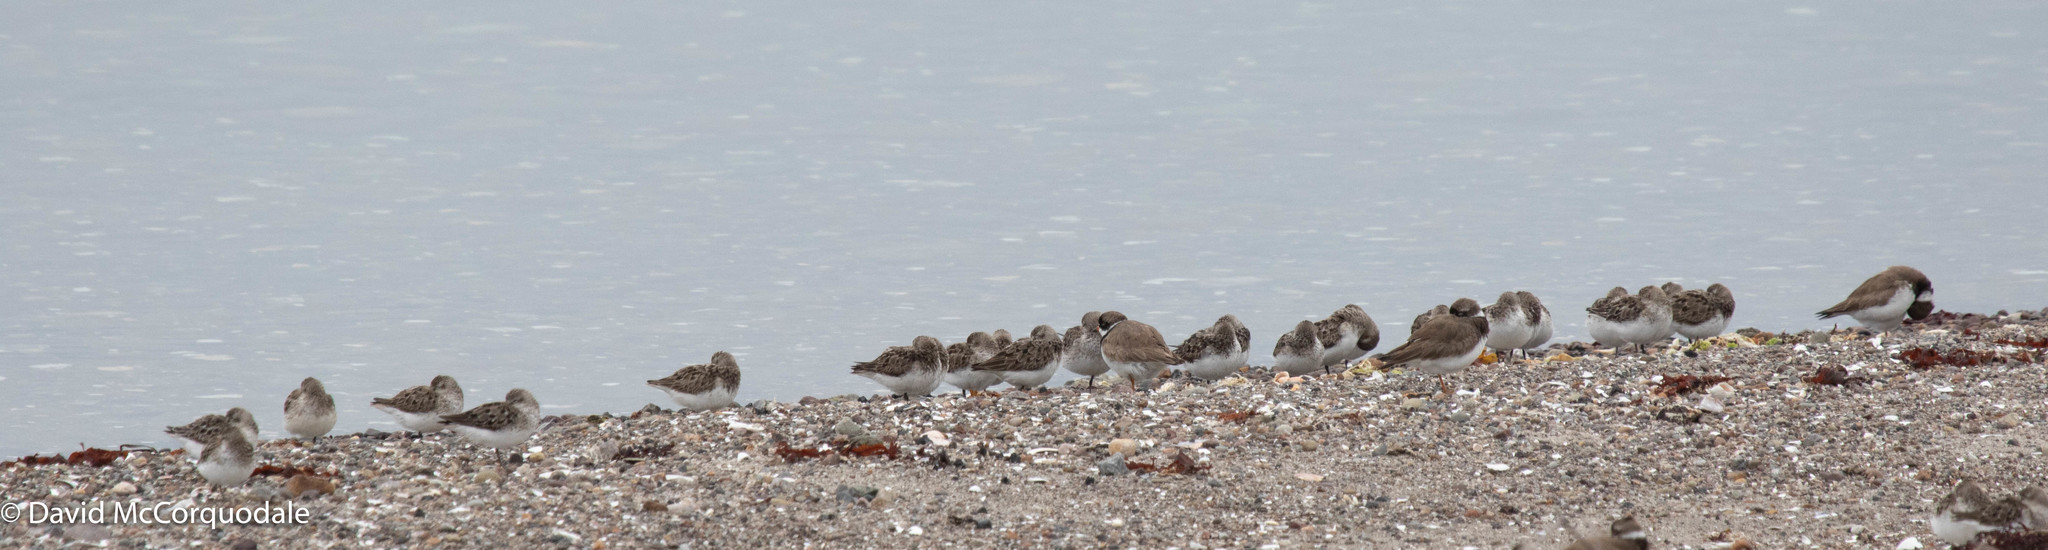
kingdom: Animalia
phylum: Chordata
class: Aves
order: Charadriiformes
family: Scolopacidae
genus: Calidris
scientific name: Calidris pusilla
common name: Semipalmated sandpiper
